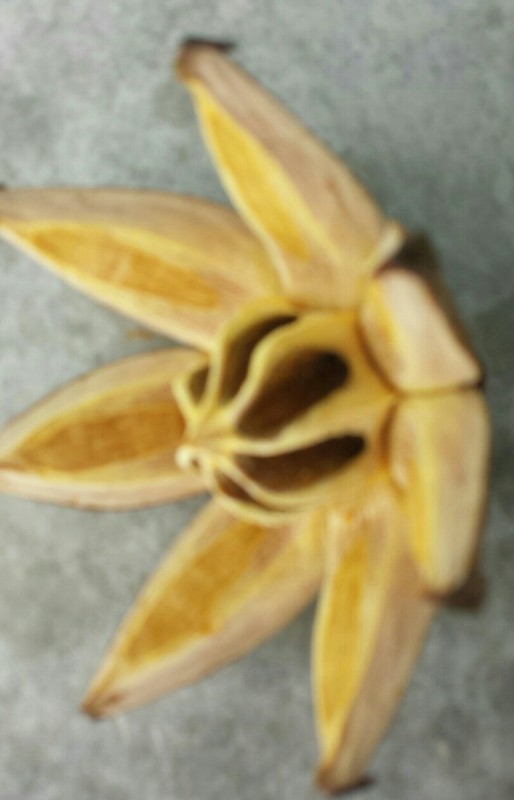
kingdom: Plantae
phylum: Tracheophyta
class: Magnoliopsida
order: Malpighiales
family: Clusiaceae
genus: Clusia
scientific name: Clusia rosea
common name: Scotch attorney
